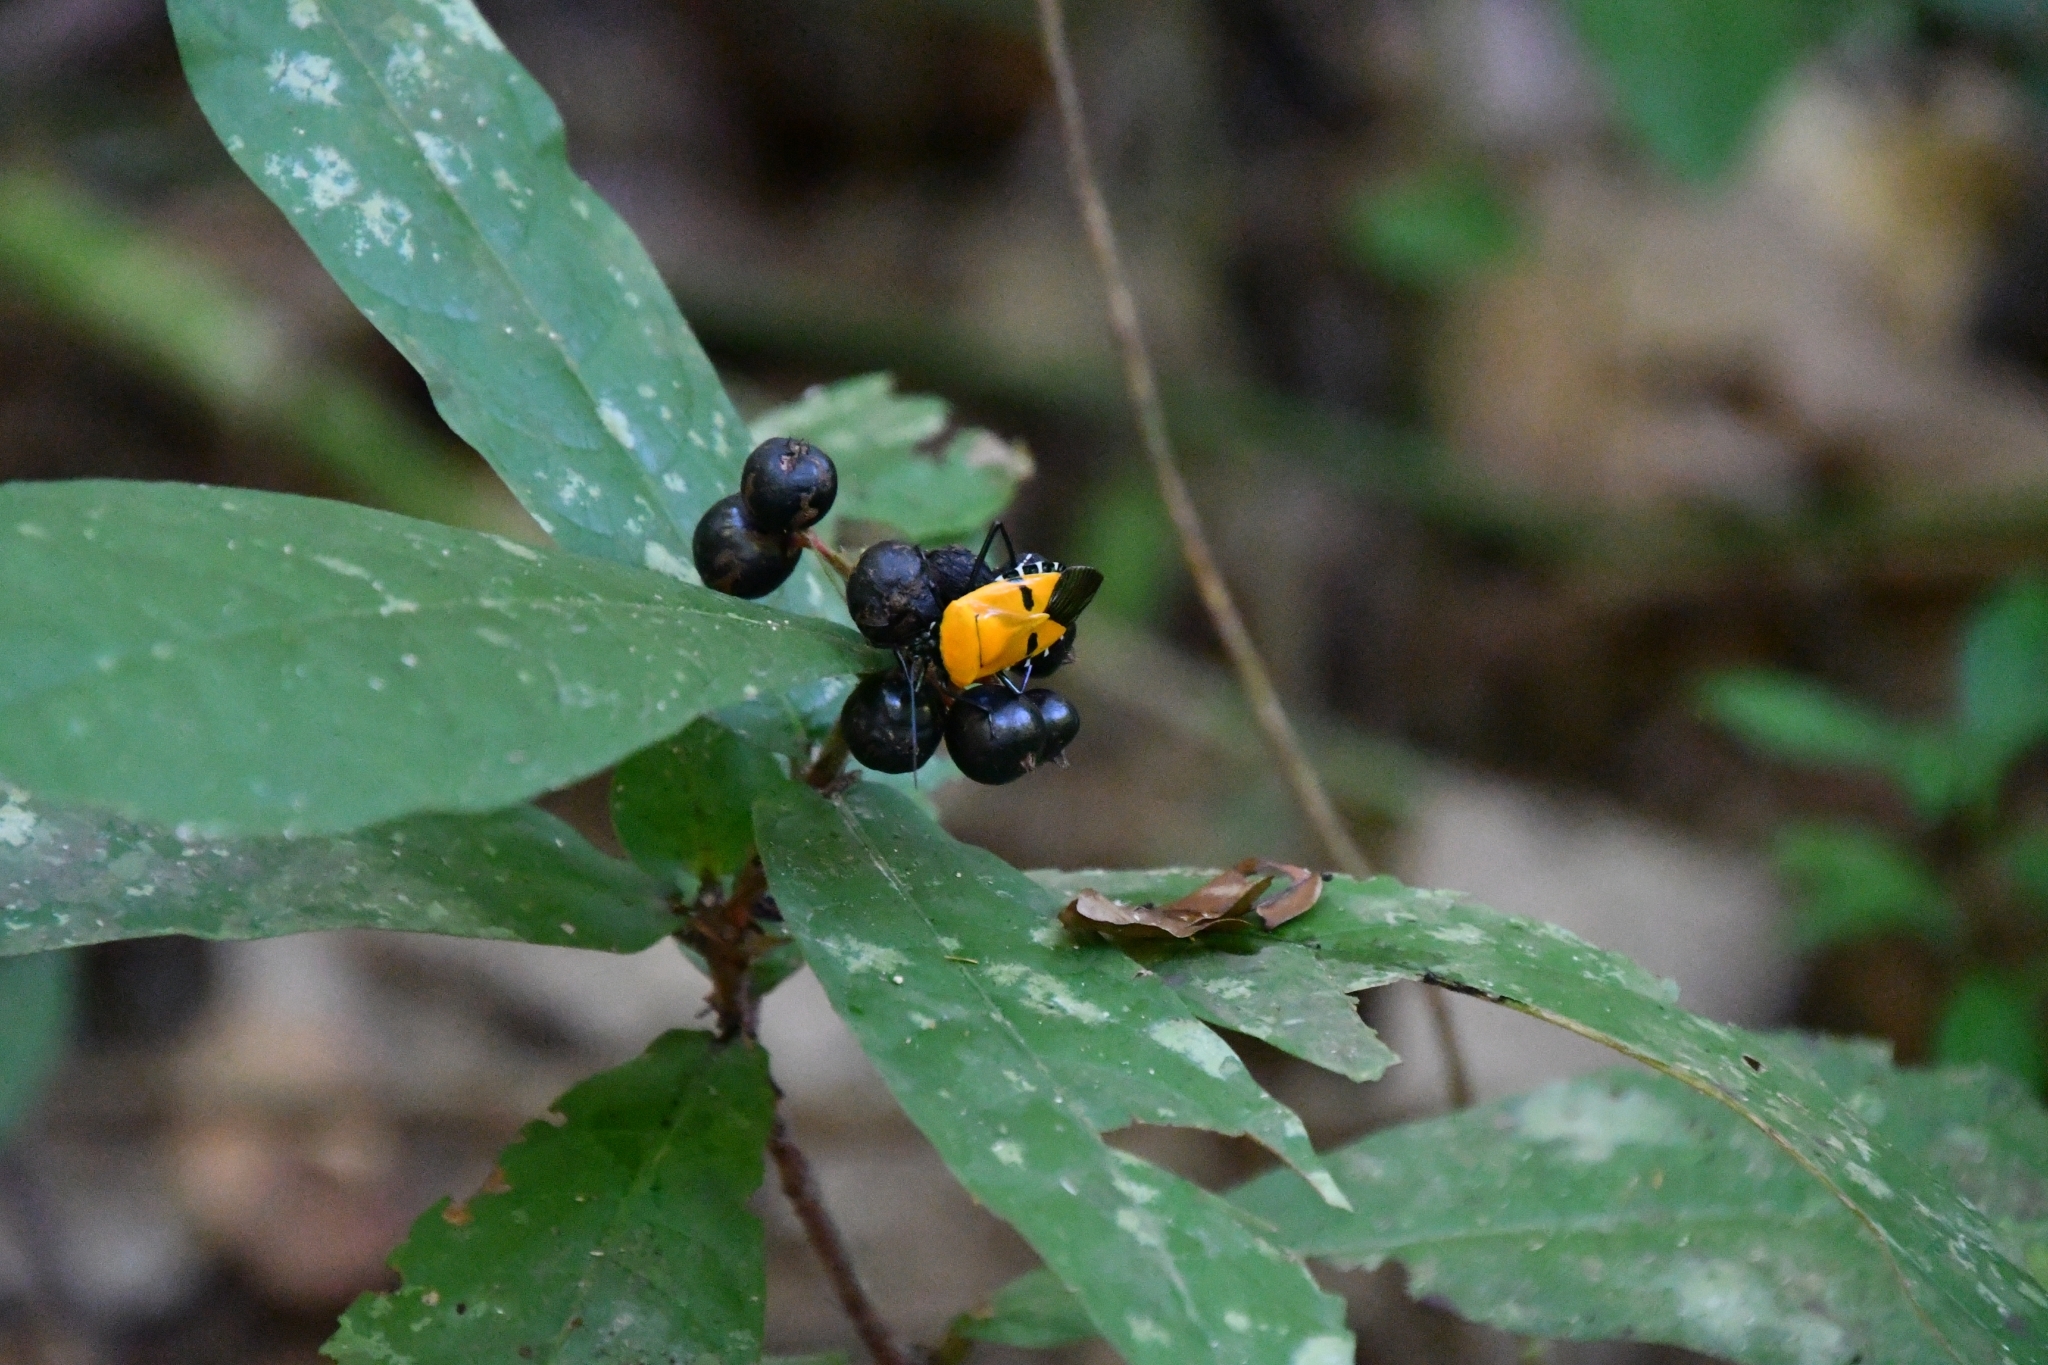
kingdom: Animalia
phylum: Arthropoda
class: Insecta
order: Hemiptera
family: Pentatomidae
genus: Catacanthus
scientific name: Catacanthus incarnatus
